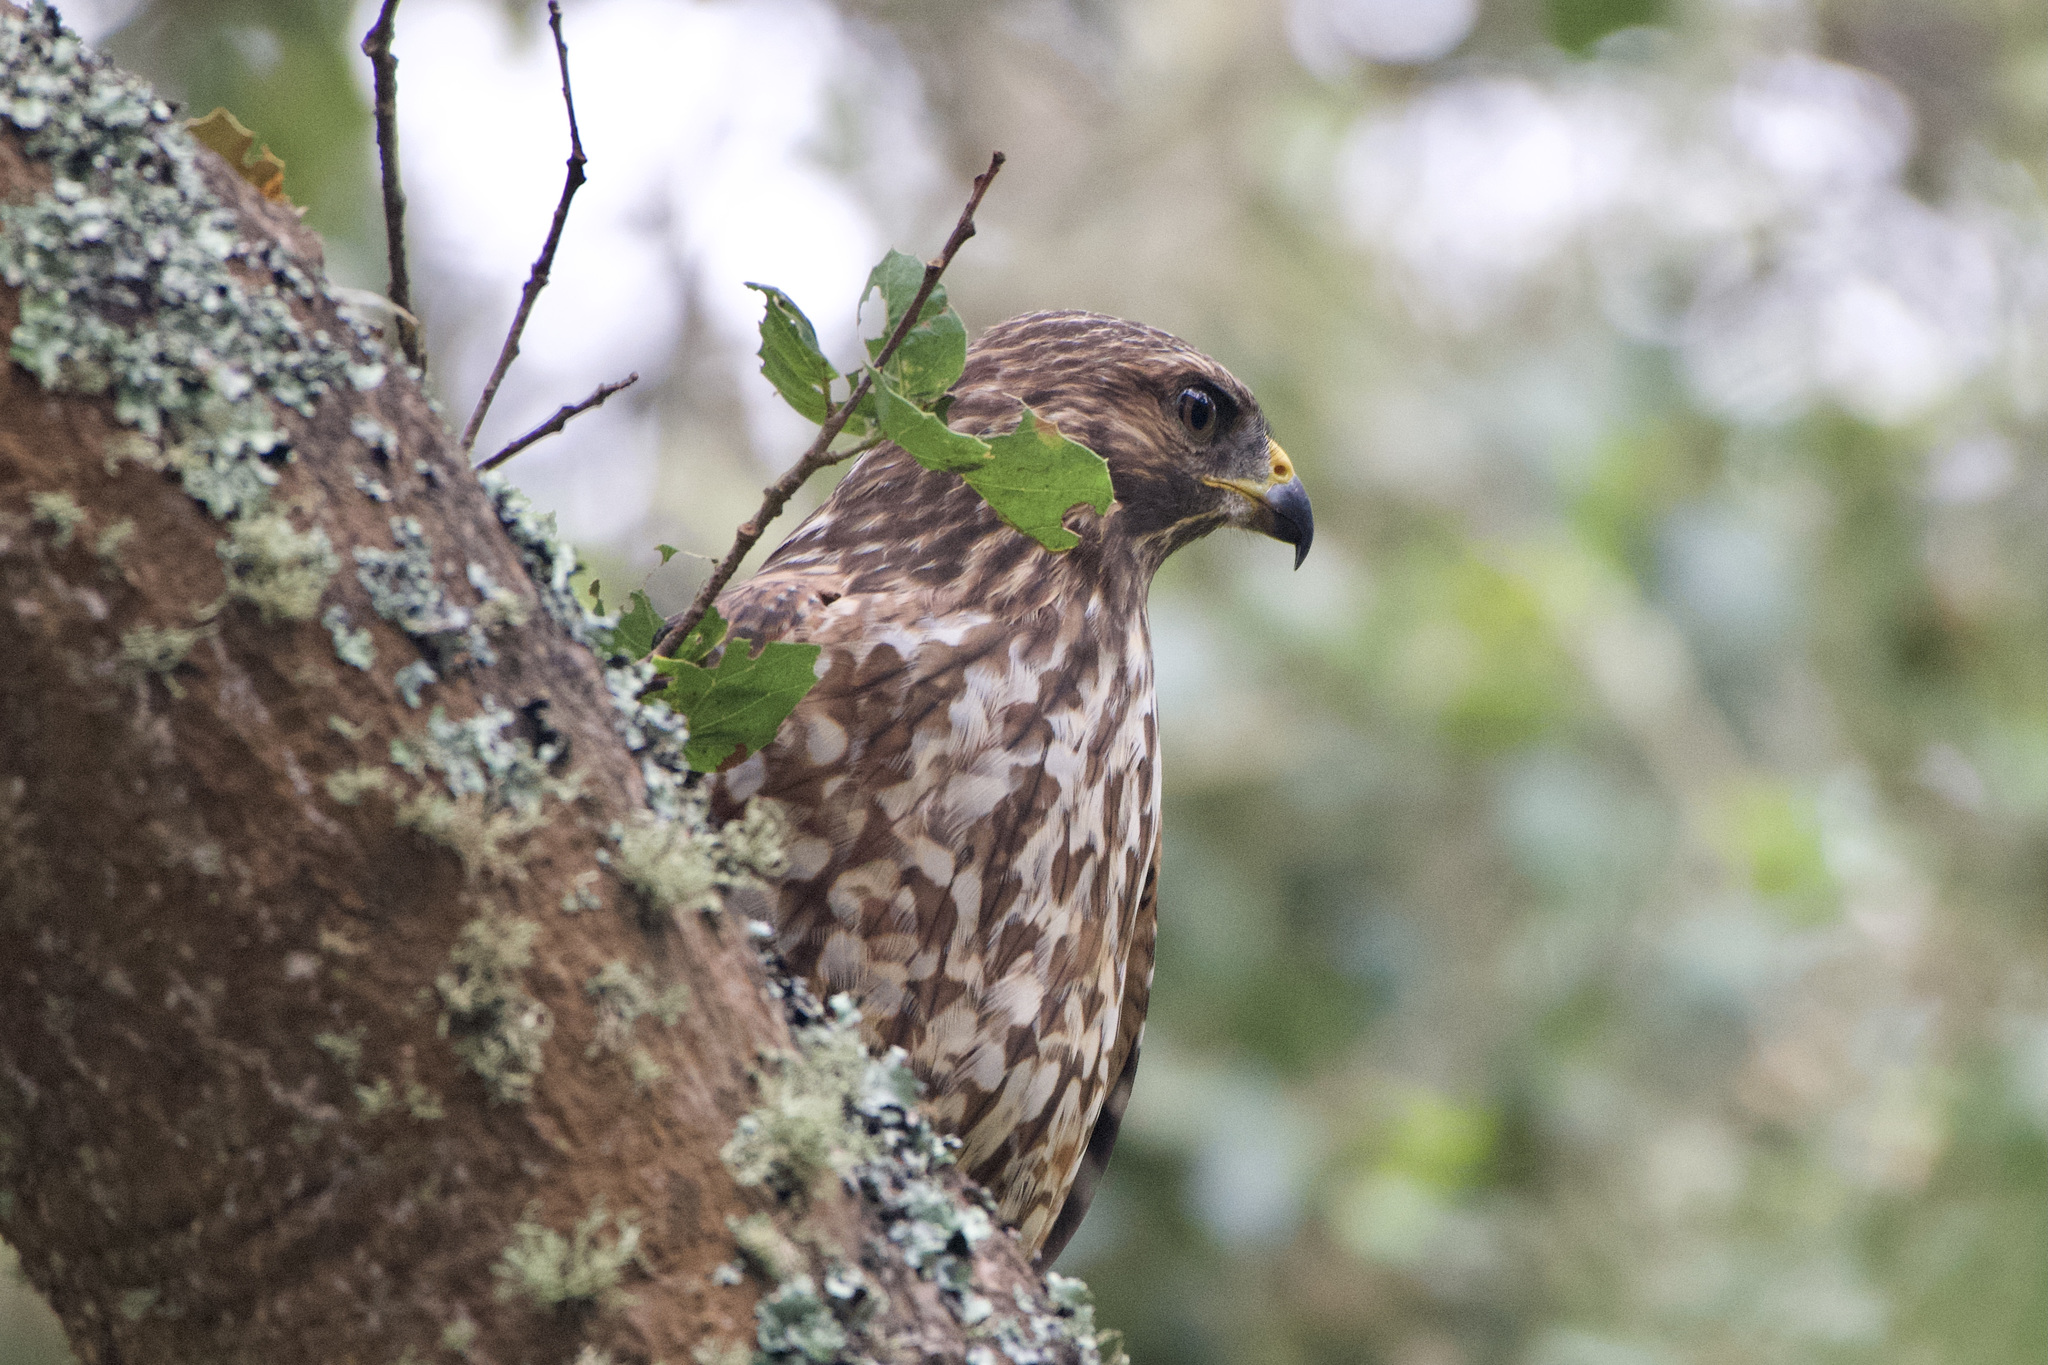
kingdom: Animalia
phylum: Chordata
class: Aves
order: Accipitriformes
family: Accipitridae
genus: Buteo
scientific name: Buteo lineatus
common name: Red-shouldered hawk
